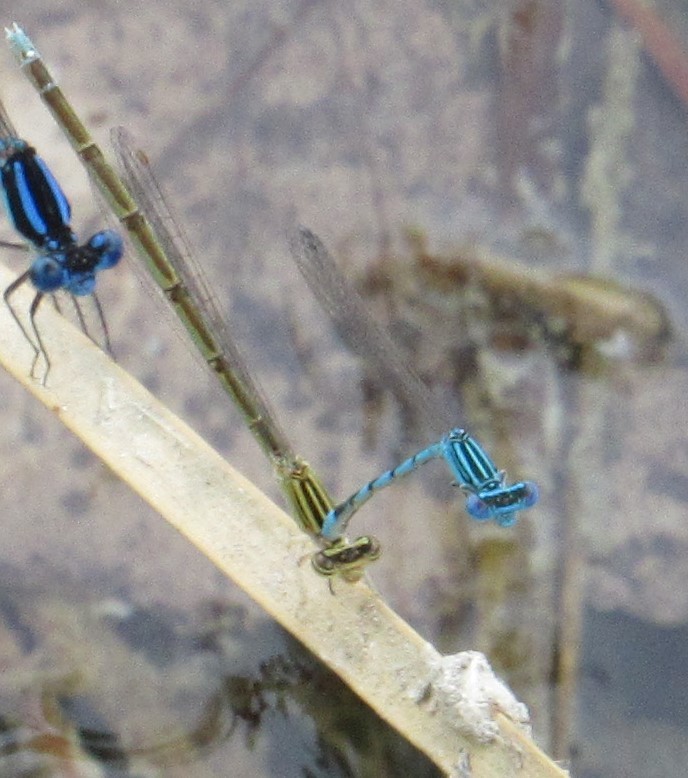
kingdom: Animalia
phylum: Arthropoda
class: Insecta
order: Odonata
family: Coenagrionidae
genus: Enallagma
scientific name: Enallagma basidens
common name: Double-striped bluet
